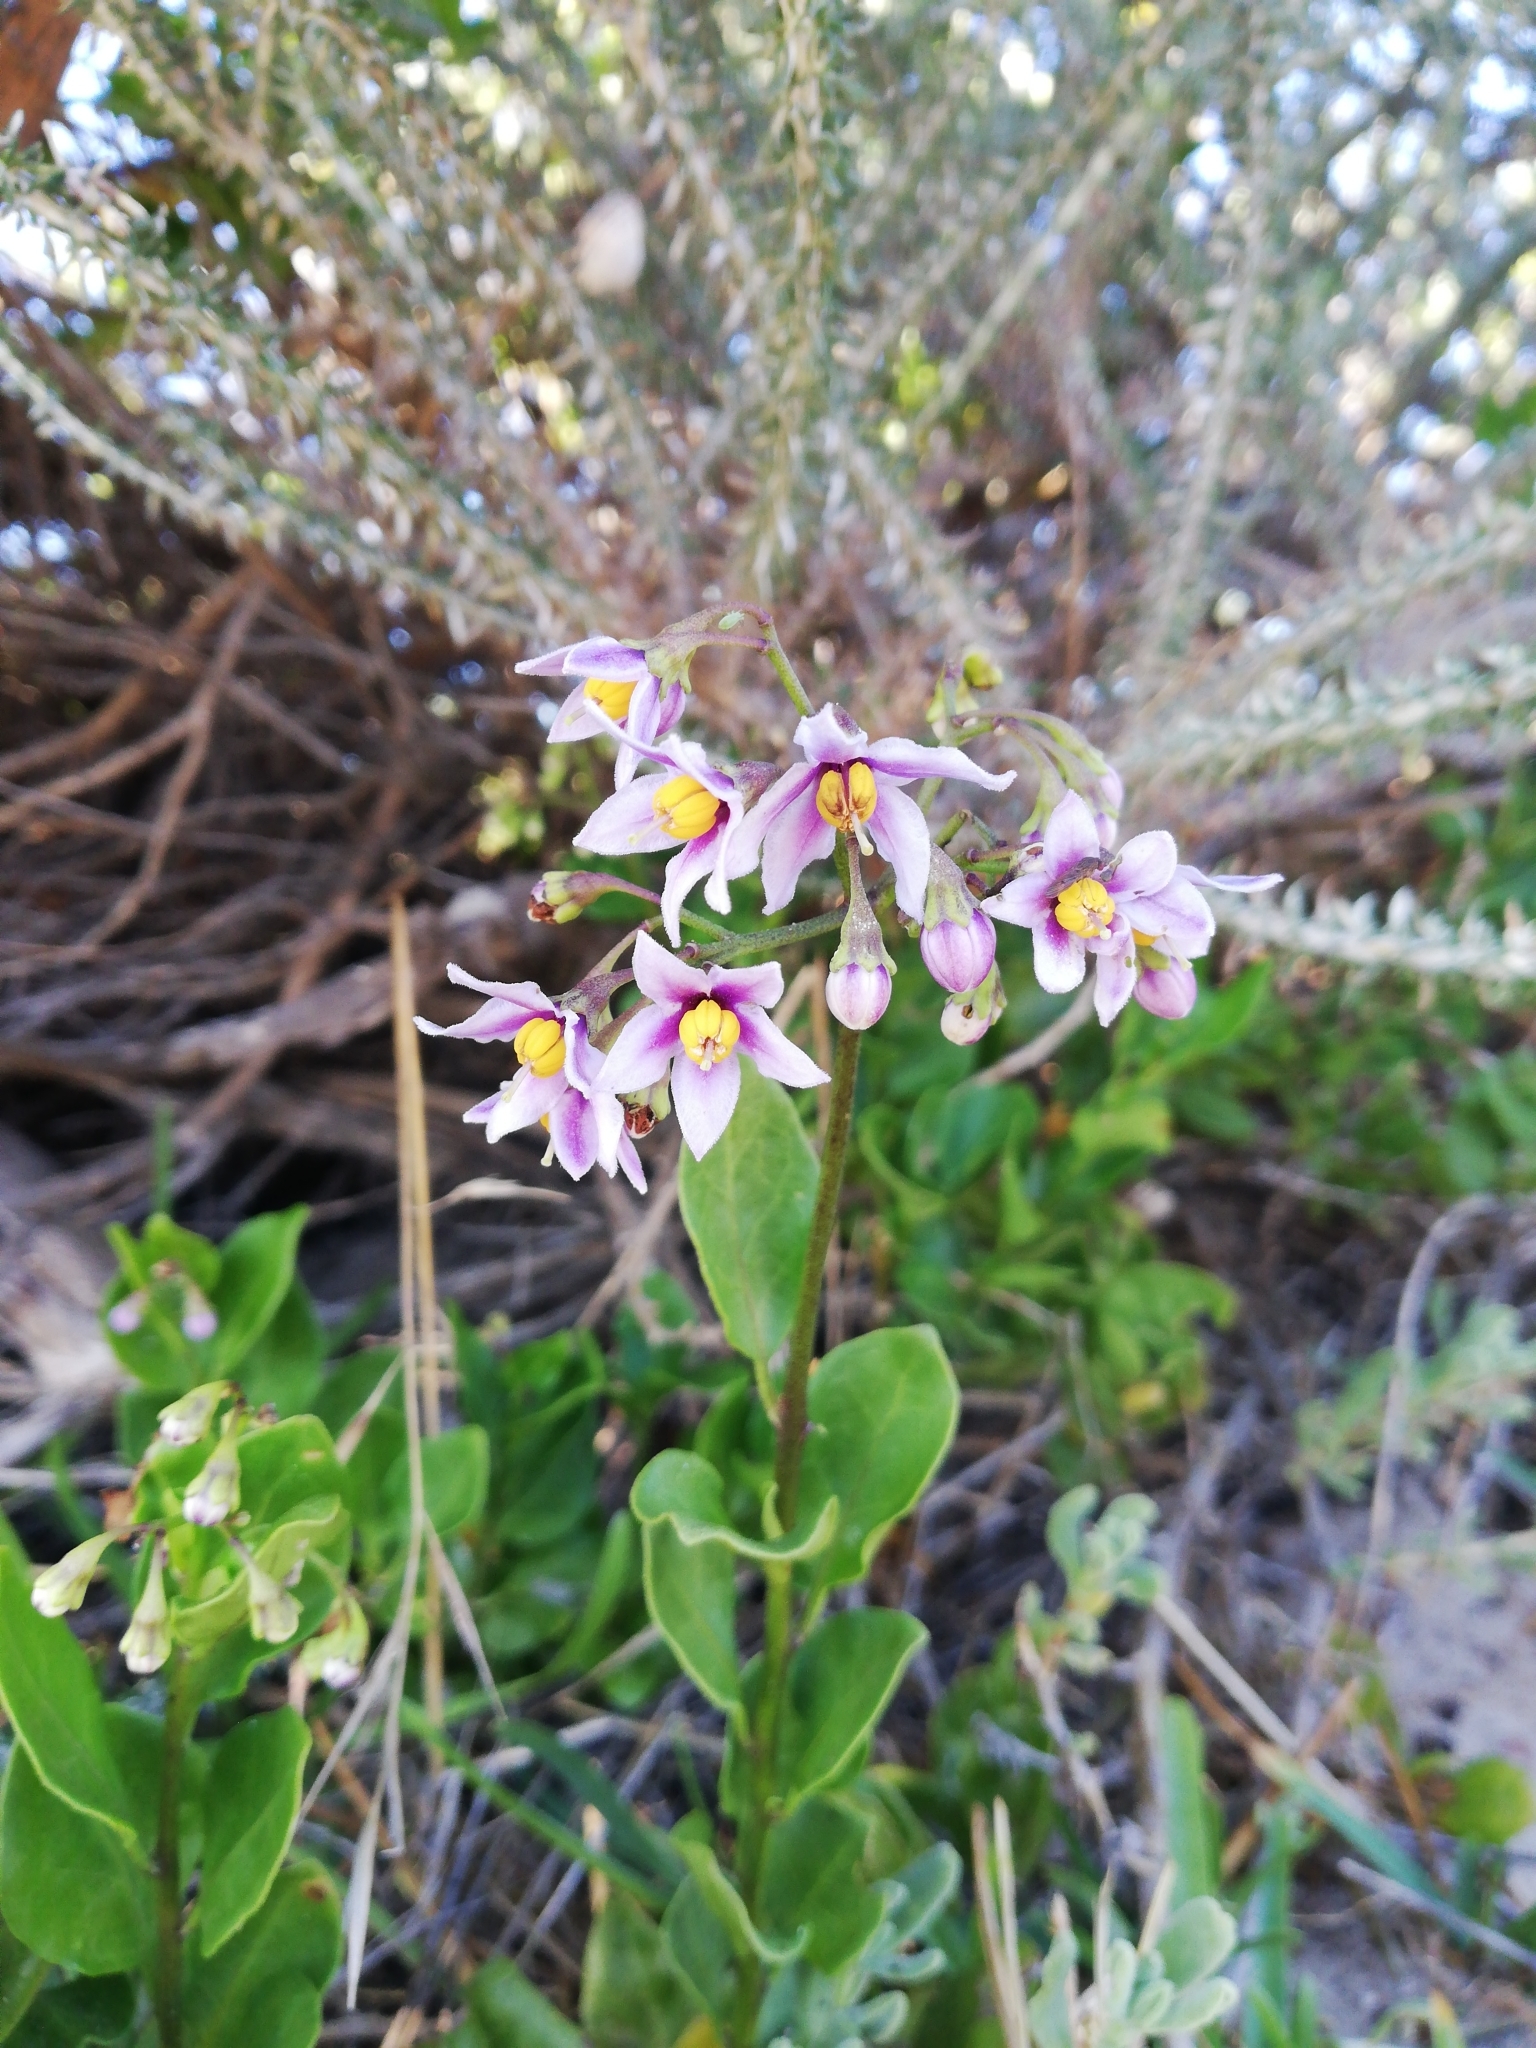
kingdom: Plantae
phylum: Tracheophyta
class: Magnoliopsida
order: Solanales
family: Solanaceae
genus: Solanum
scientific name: Solanum africanum
